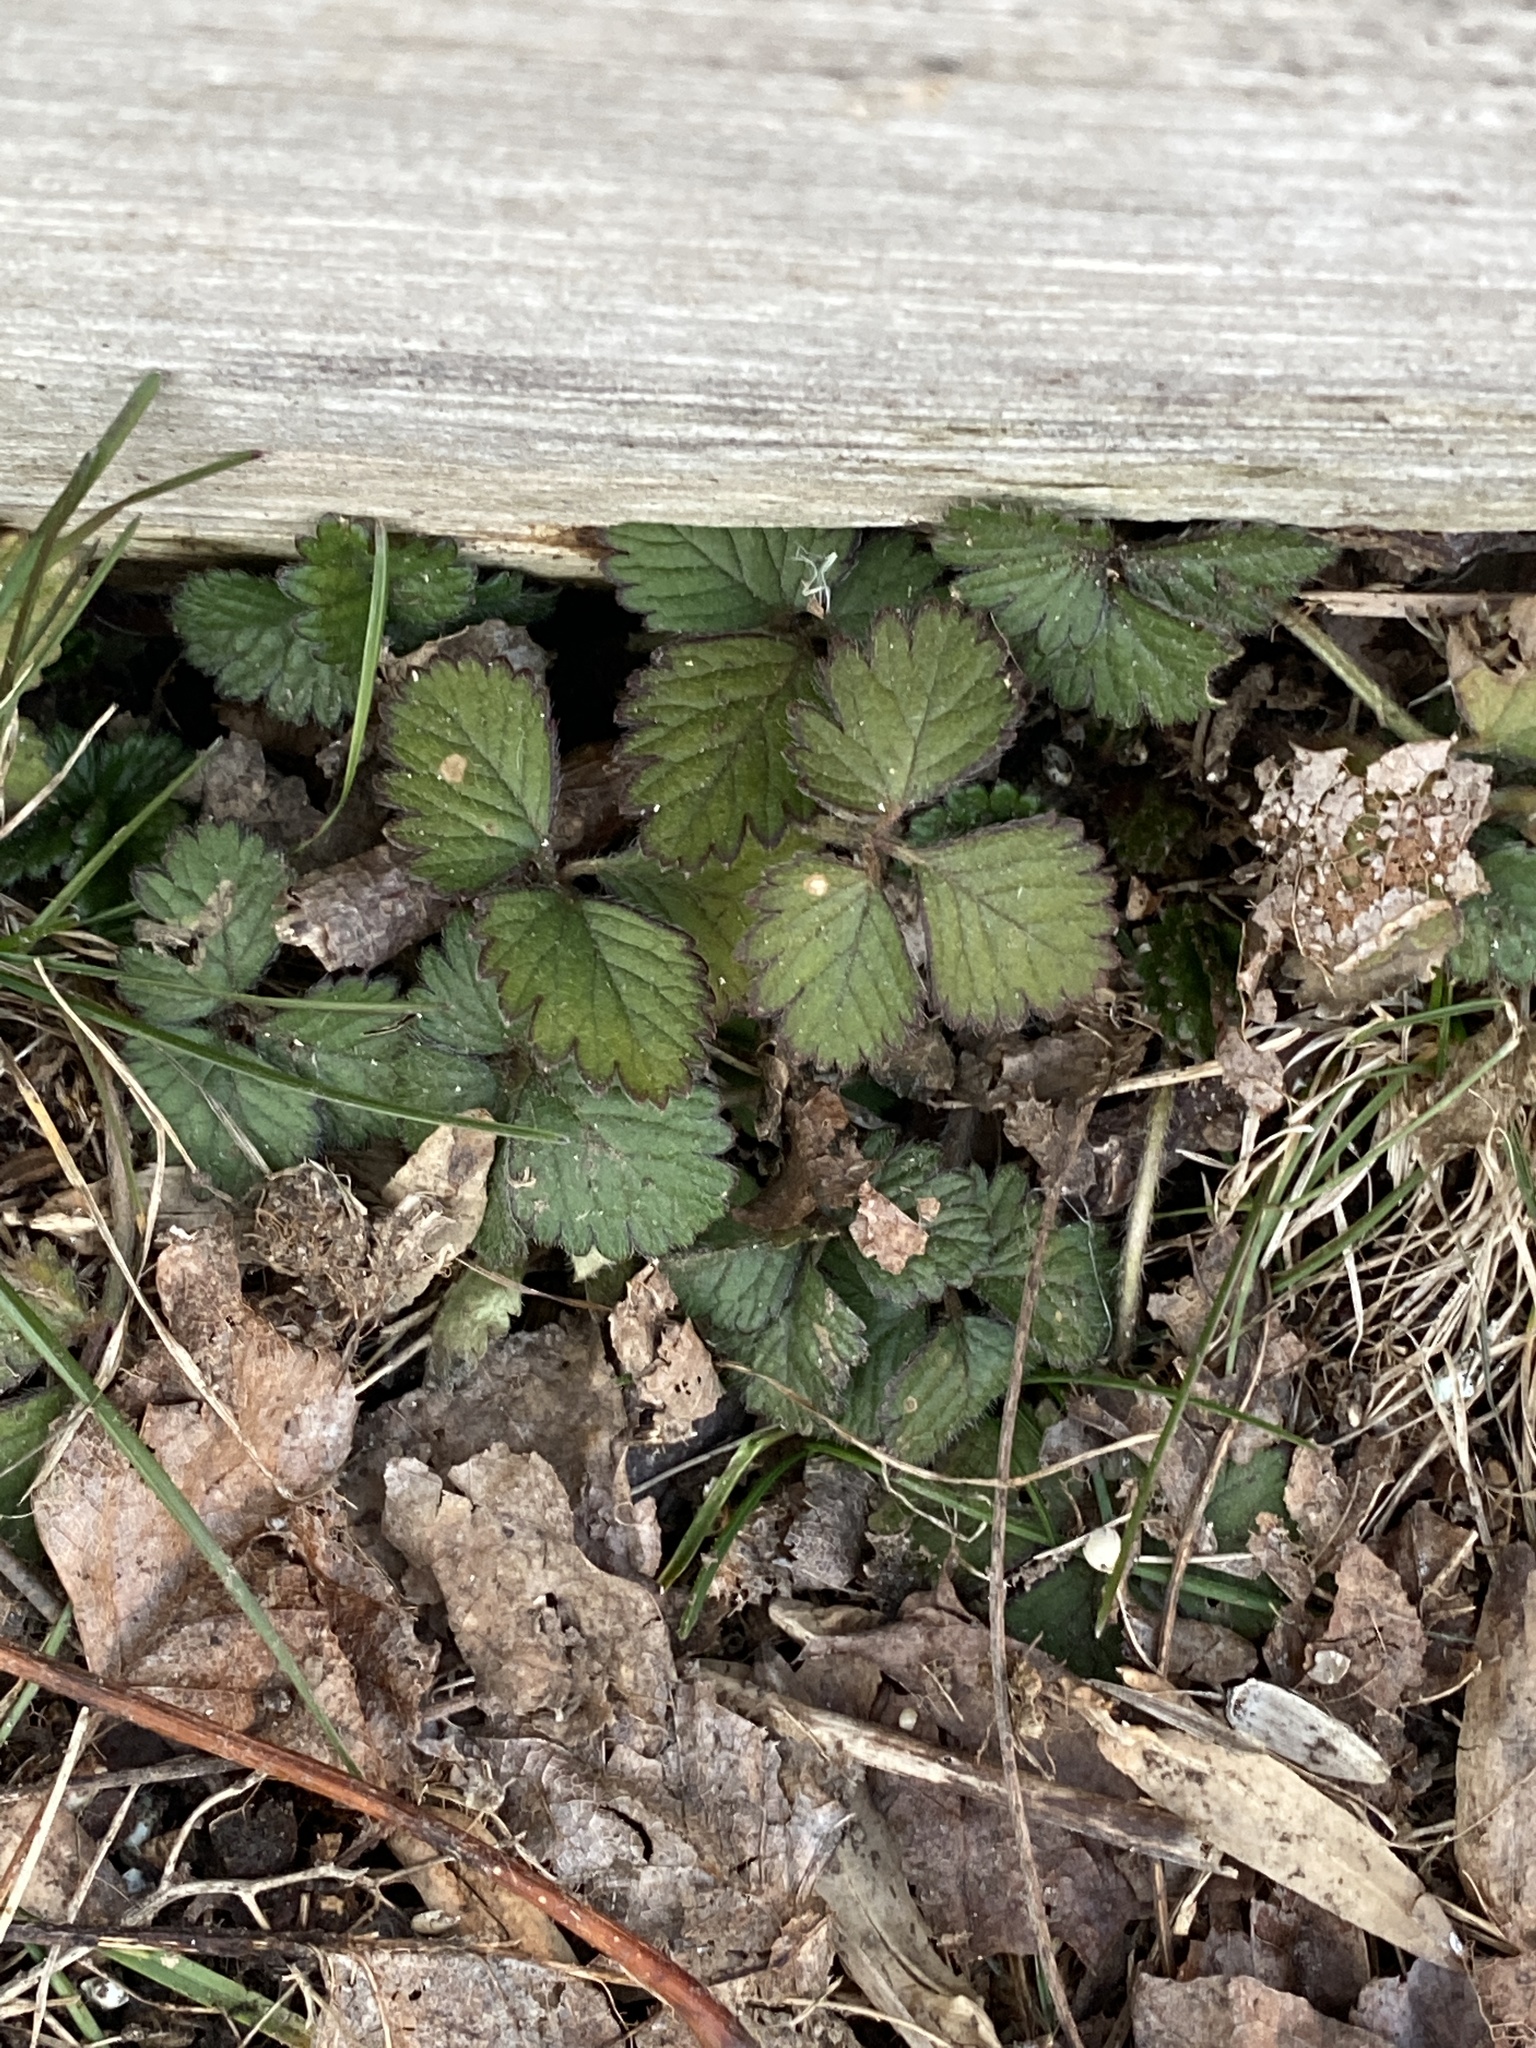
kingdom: Plantae
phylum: Tracheophyta
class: Magnoliopsida
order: Rosales
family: Rosaceae
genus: Potentilla
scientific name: Potentilla indica
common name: Yellow-flowered strawberry
